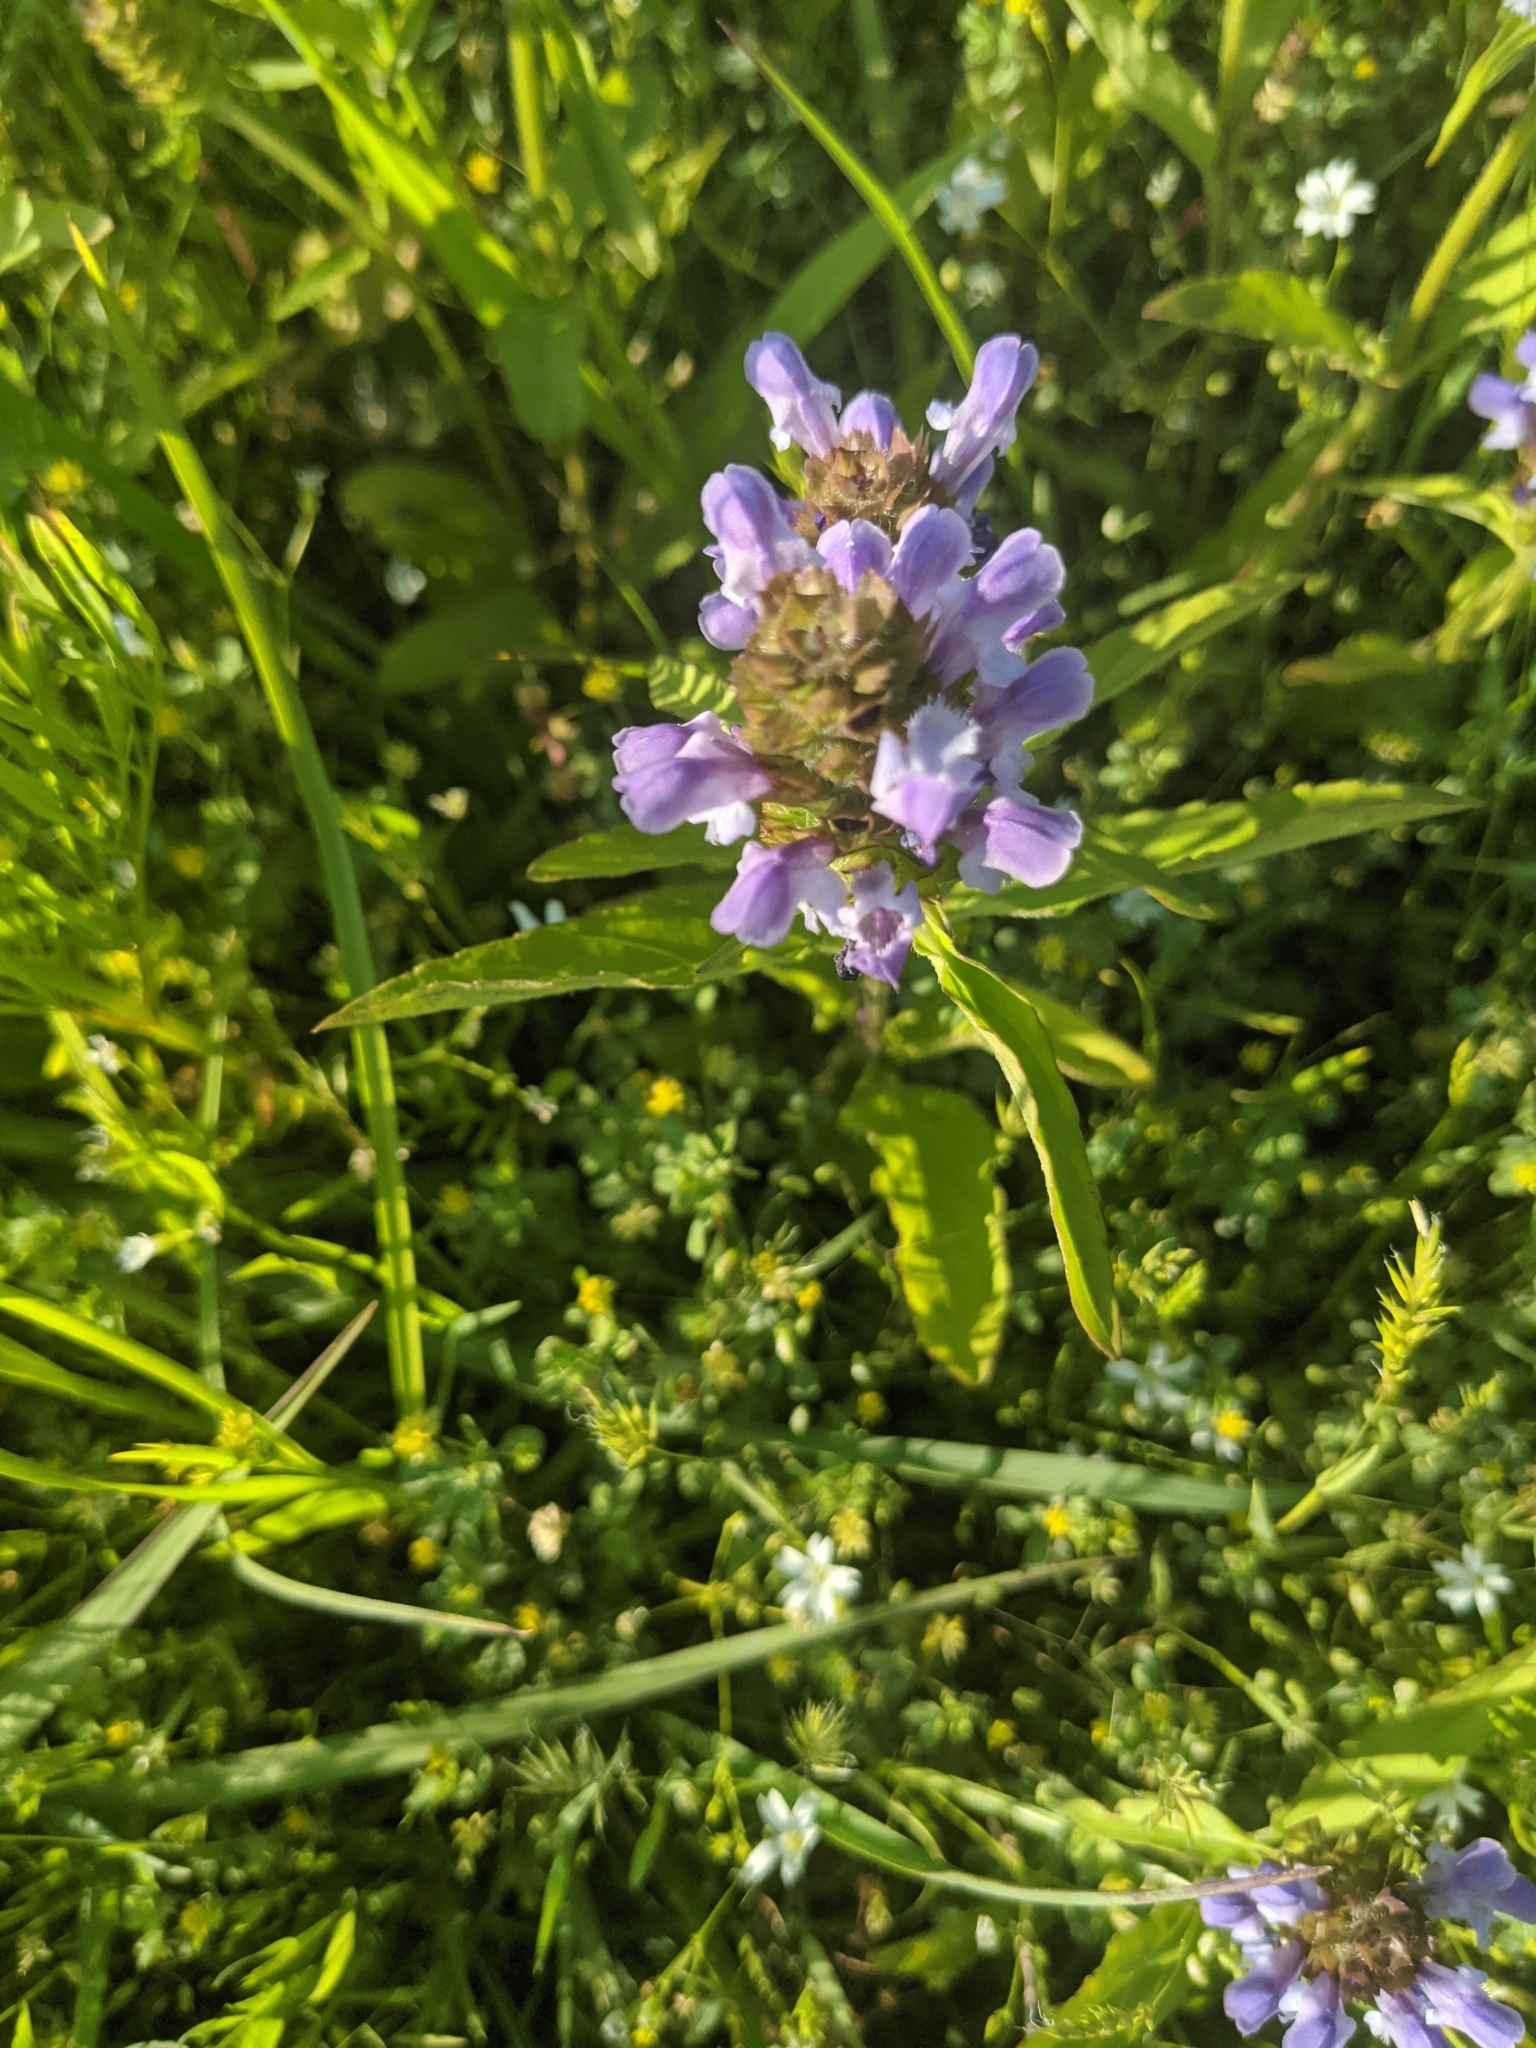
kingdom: Plantae
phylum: Tracheophyta
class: Magnoliopsida
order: Lamiales
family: Lamiaceae
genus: Prunella
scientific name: Prunella vulgaris
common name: Heal-all
